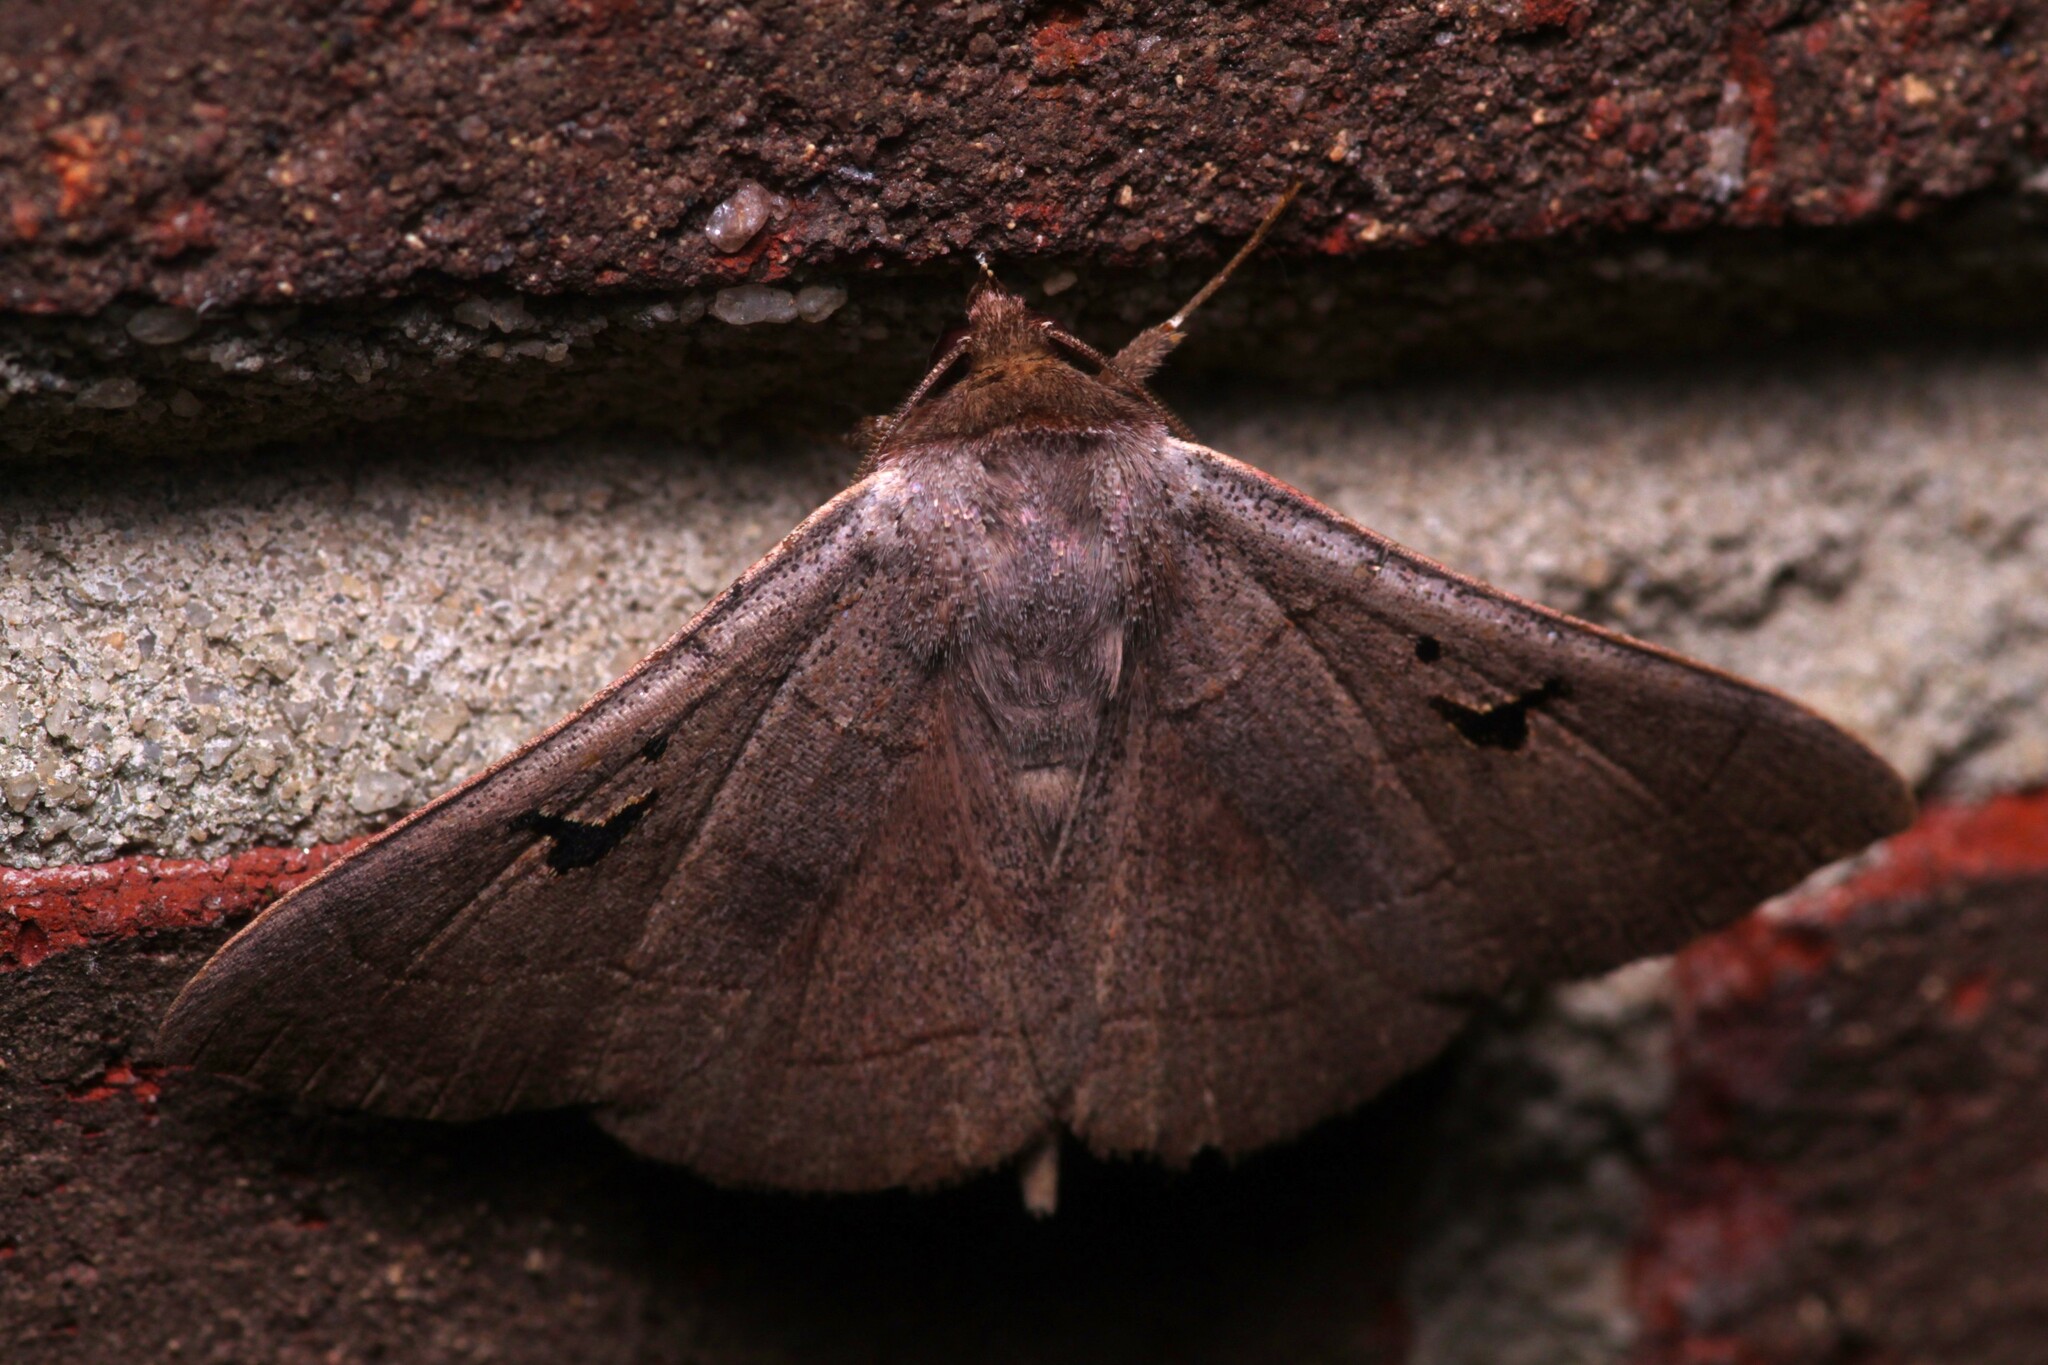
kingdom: Animalia
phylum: Arthropoda
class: Insecta
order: Lepidoptera
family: Erebidae
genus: Panopoda
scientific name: Panopoda carneicosta
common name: Brown panopoda moth
